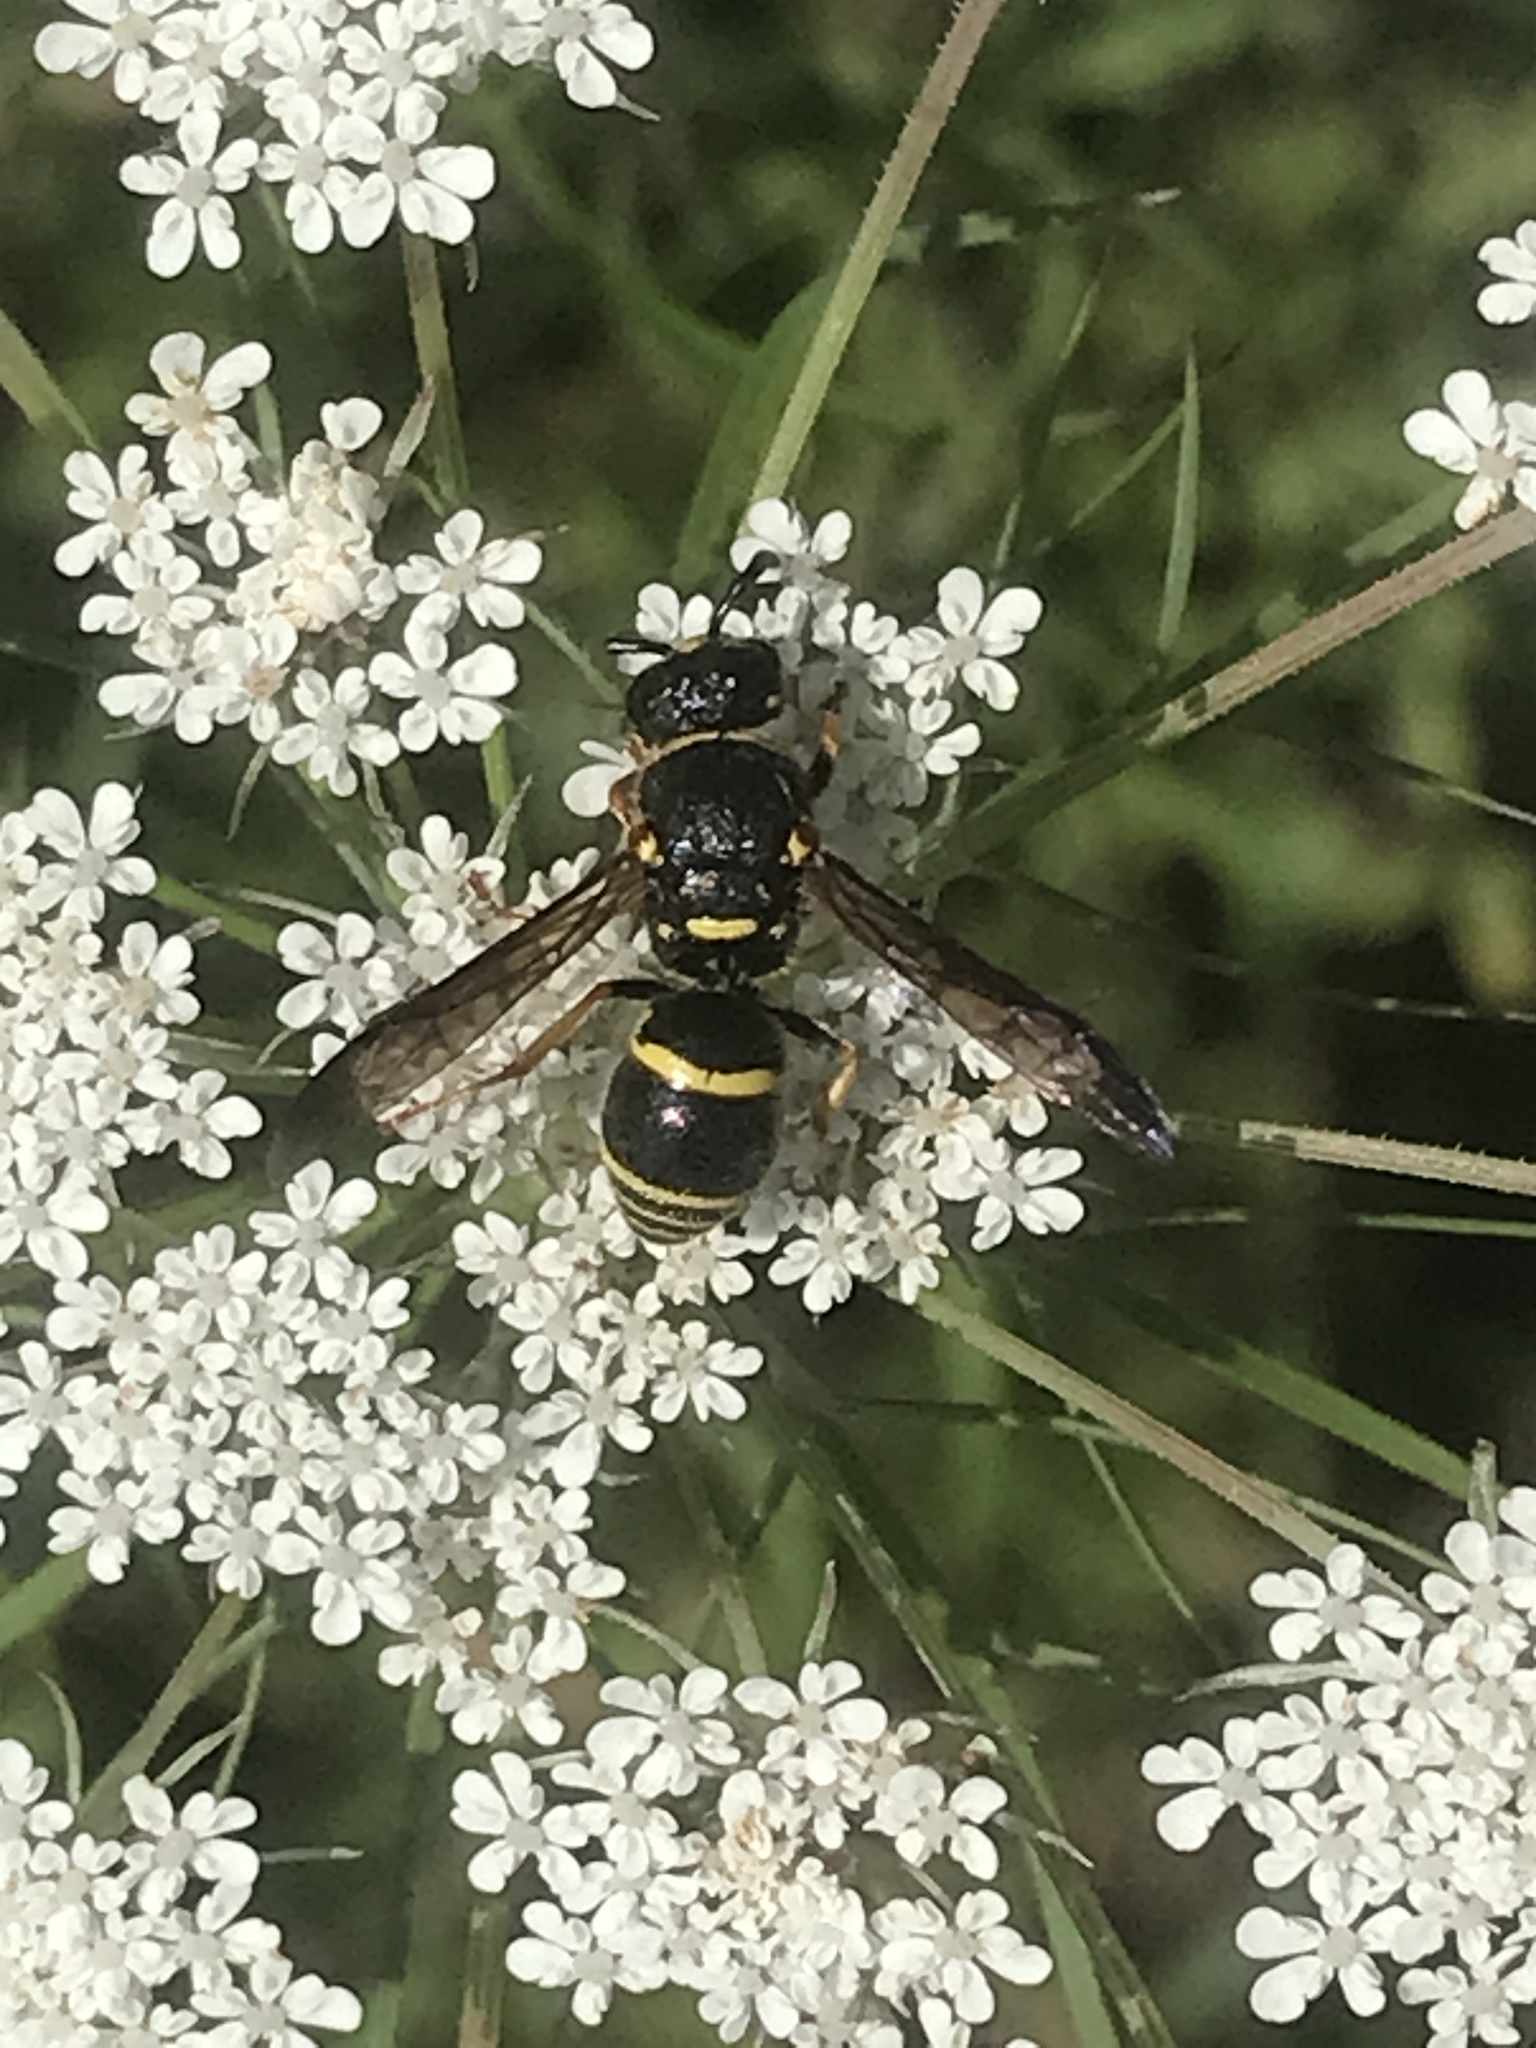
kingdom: Animalia
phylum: Arthropoda
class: Insecta
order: Hymenoptera
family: Eumenidae
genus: Euodynerus
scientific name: Euodynerus foraminatus
